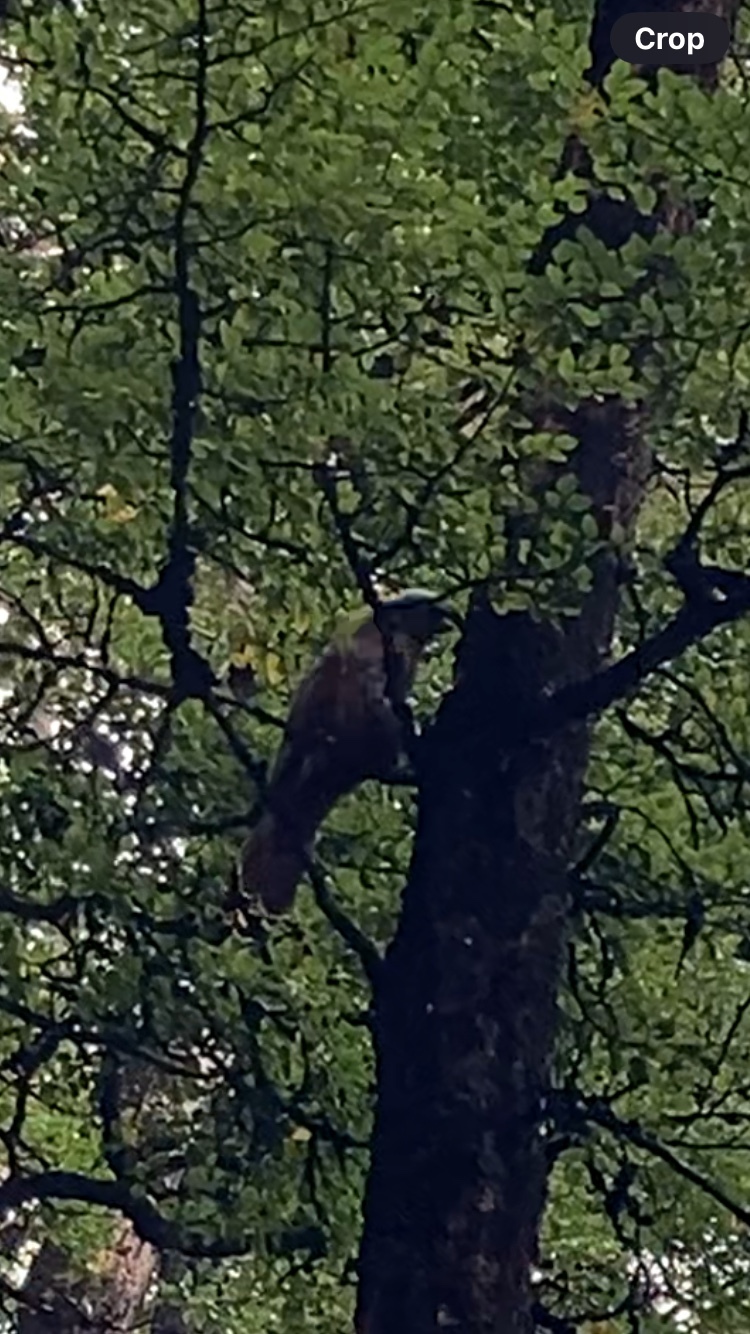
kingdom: Animalia
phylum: Chordata
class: Aves
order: Psittaciformes
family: Psittacidae
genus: Nestor
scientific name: Nestor meridionalis
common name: New zealand kaka
